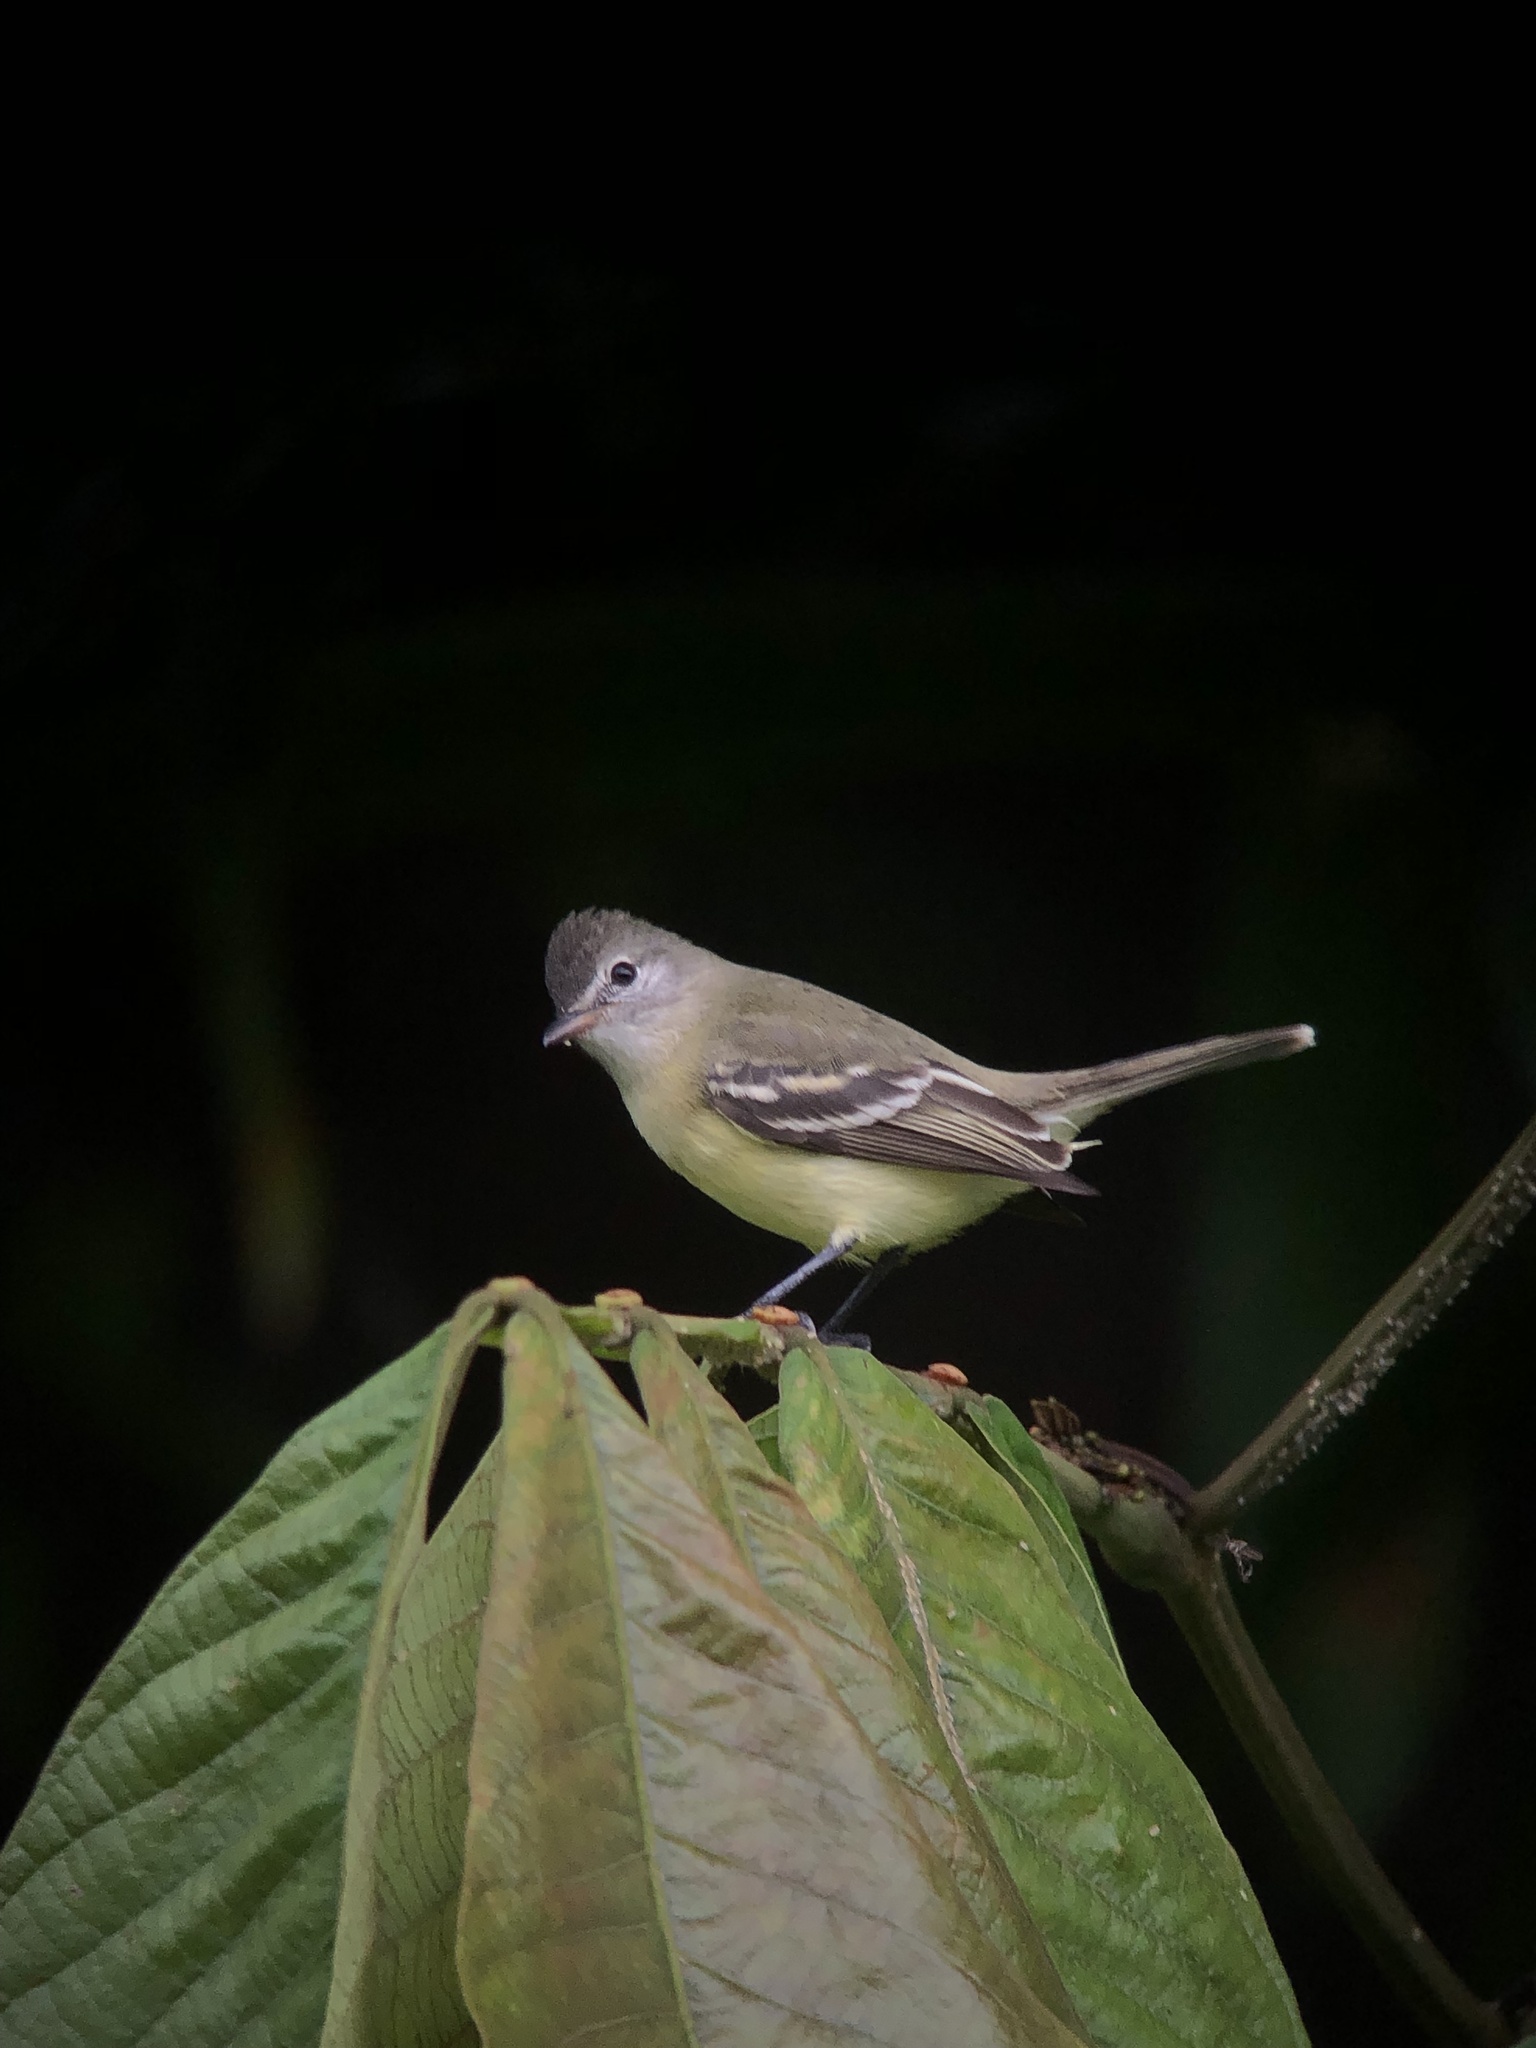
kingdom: Animalia
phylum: Chordata
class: Aves
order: Passeriformes
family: Tyrannidae
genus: Camptostoma
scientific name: Camptostoma obsoletum
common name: Southern beardless-tyrannulet
